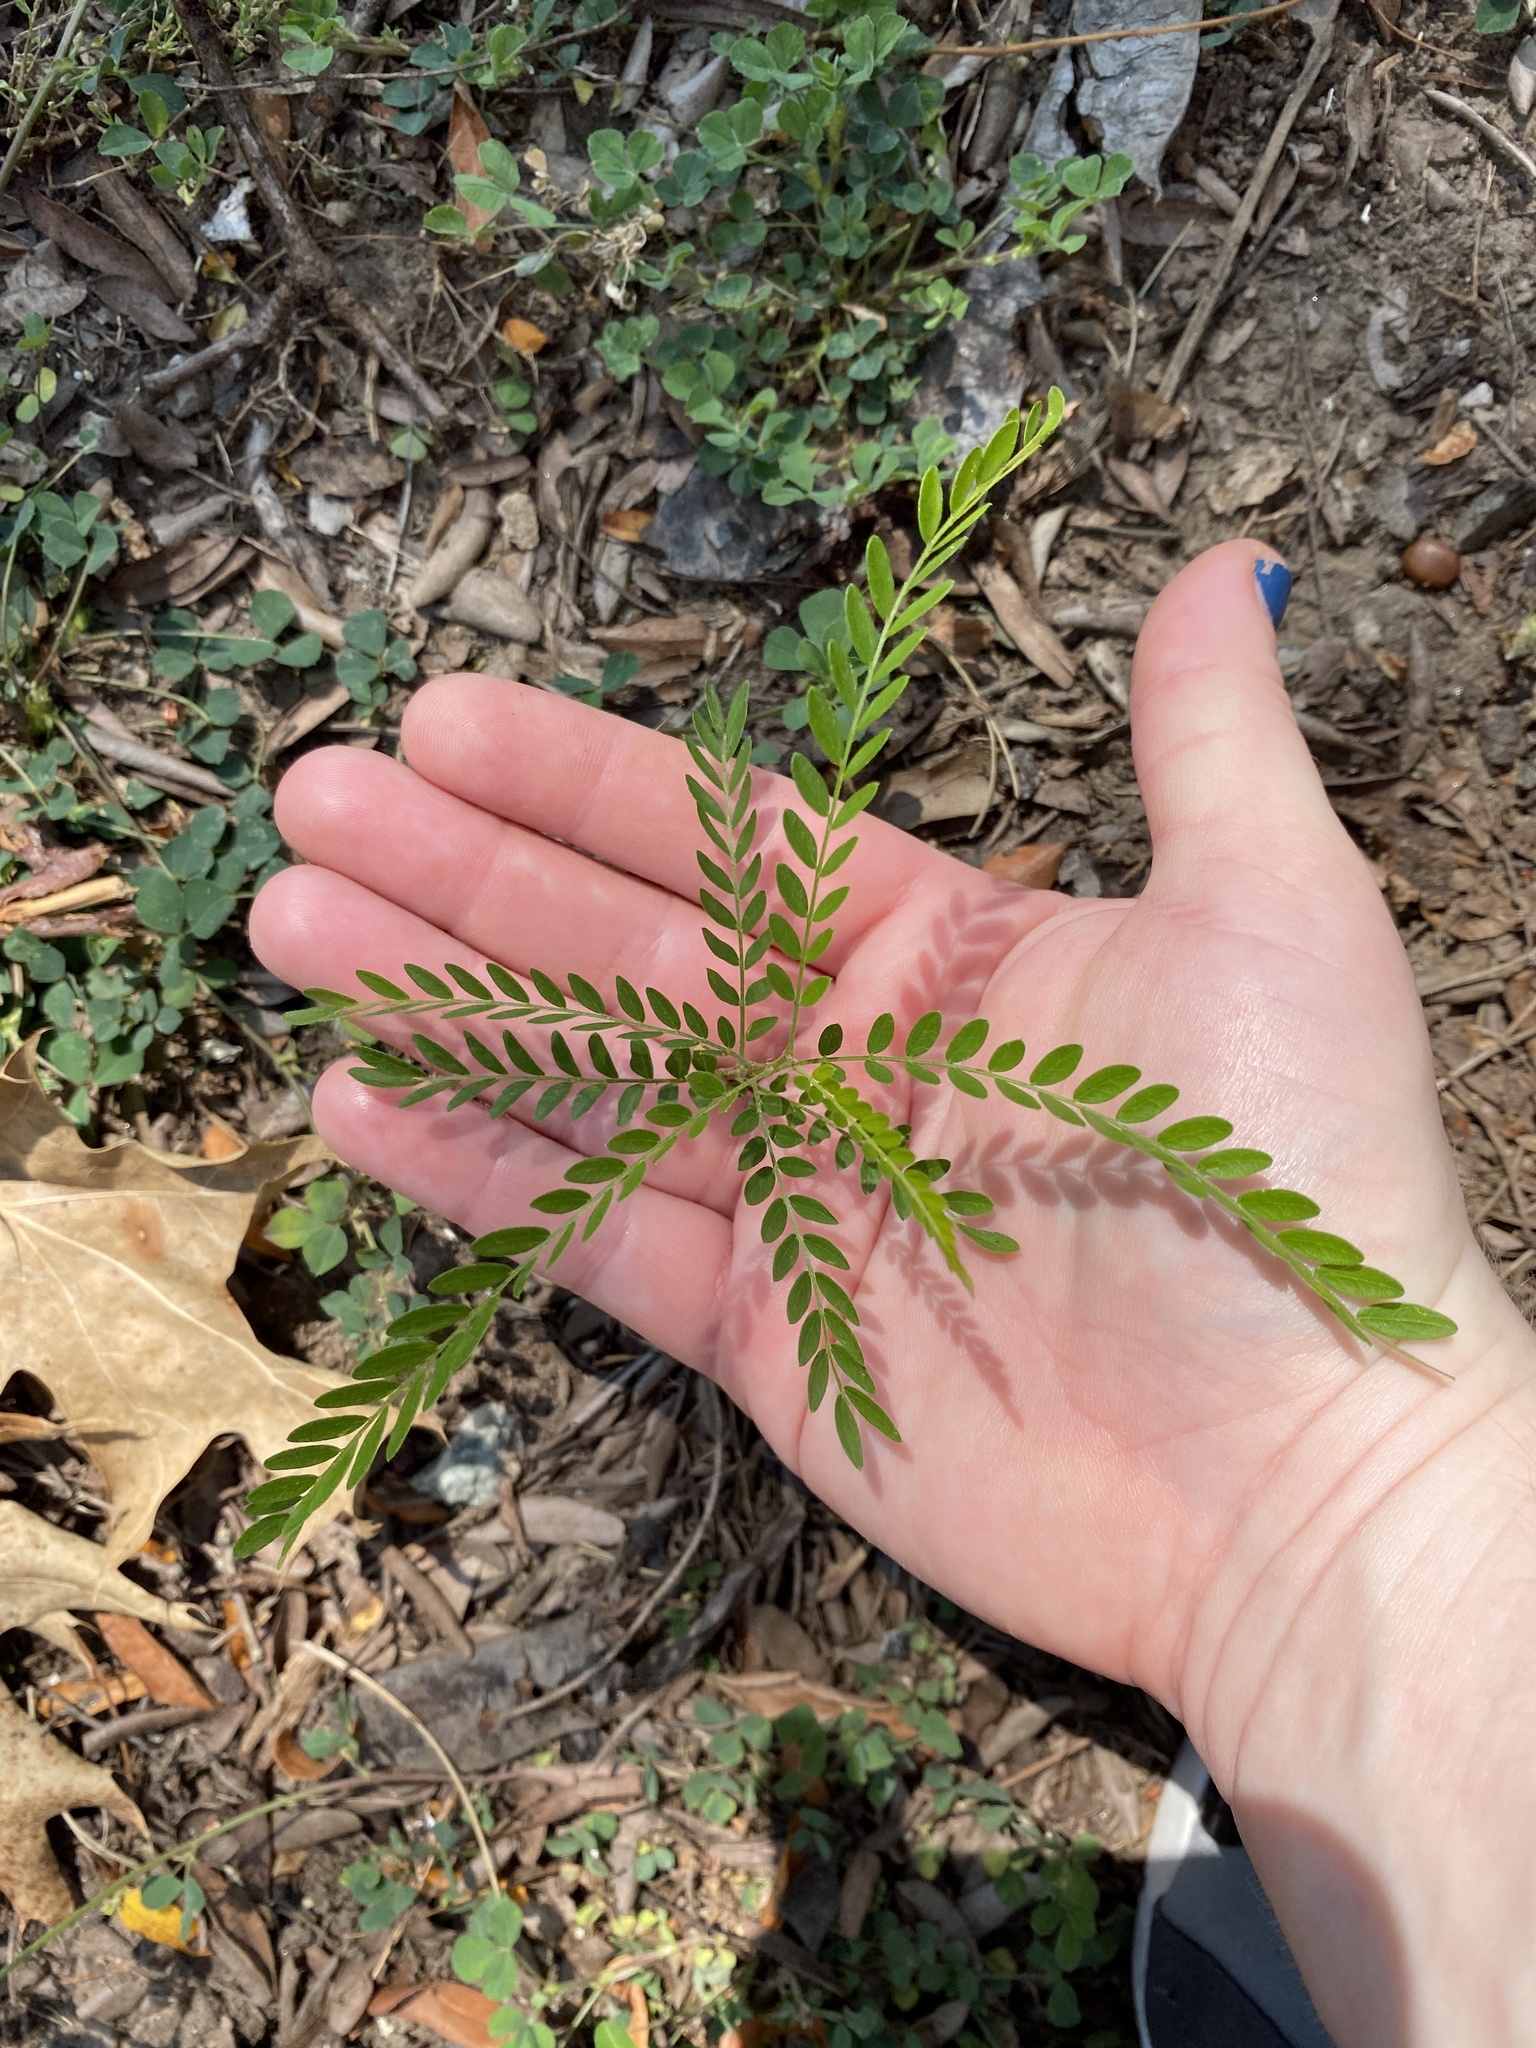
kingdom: Plantae
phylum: Tracheophyta
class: Magnoliopsida
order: Fabales
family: Fabaceae
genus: Gleditsia
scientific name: Gleditsia triacanthos
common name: Common honeylocust
